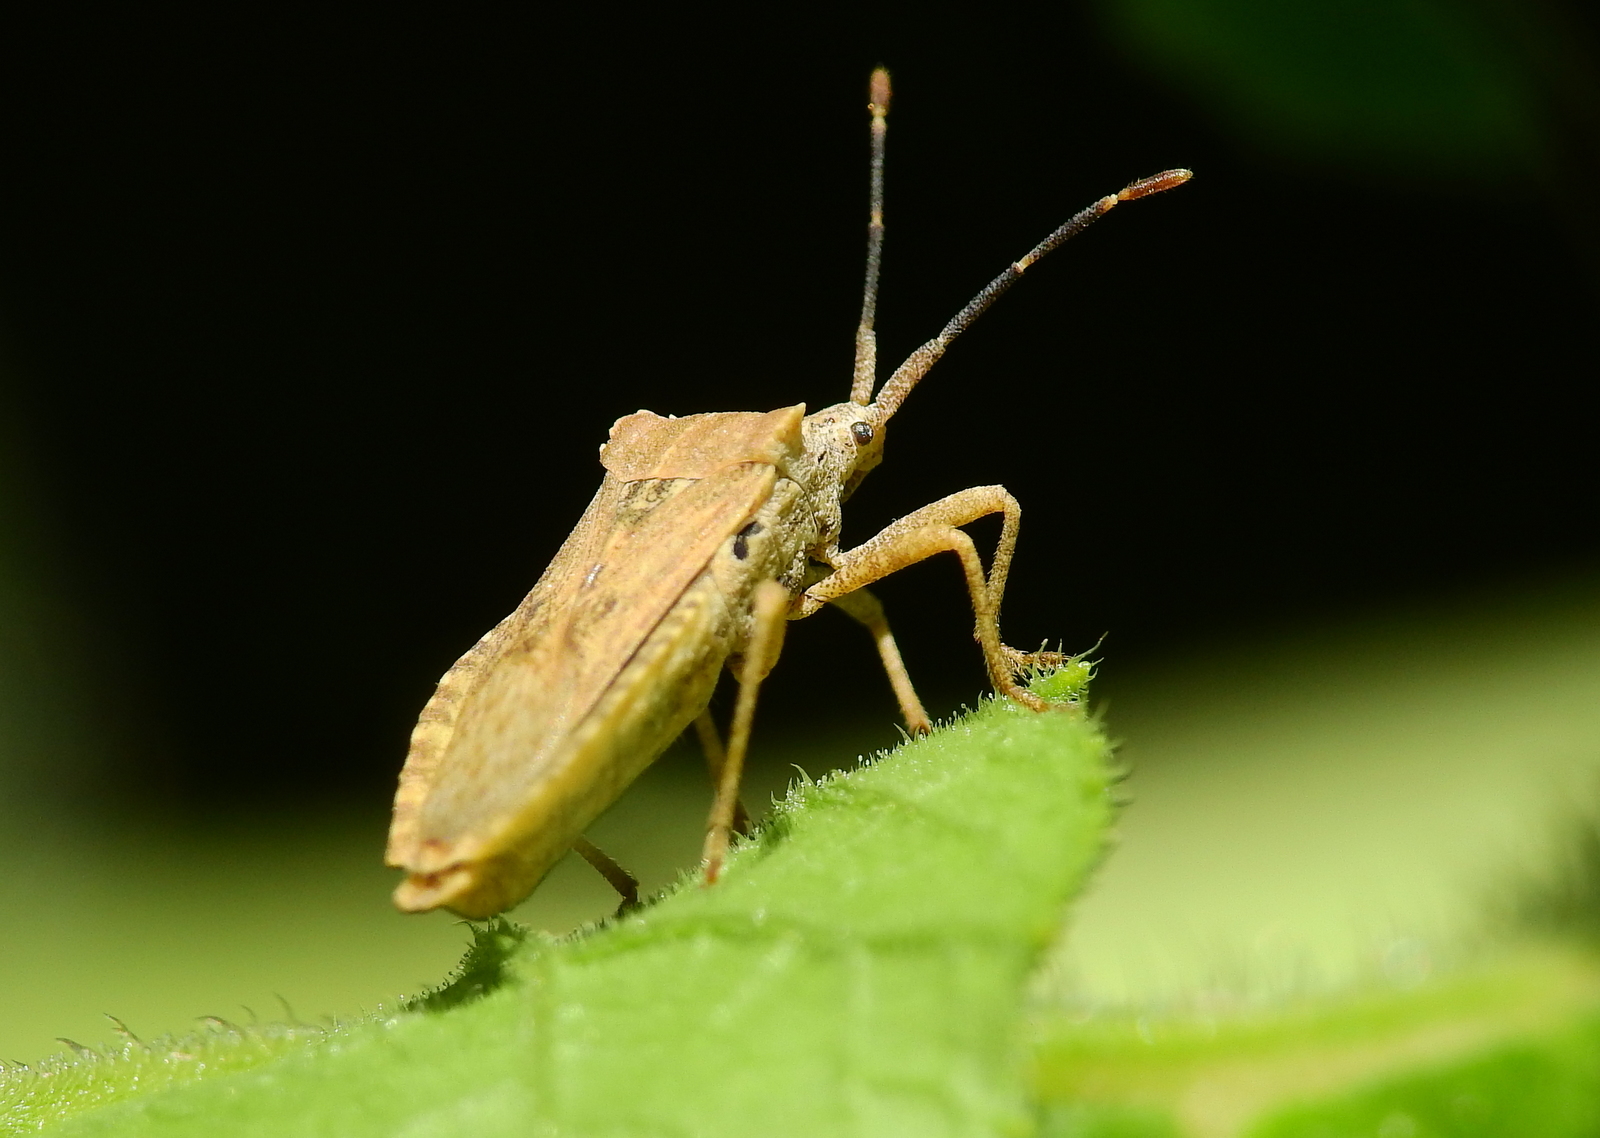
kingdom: Animalia
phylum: Arthropoda
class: Insecta
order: Hemiptera
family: Coreidae
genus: Acanonicus
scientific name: Acanonicus hahni
